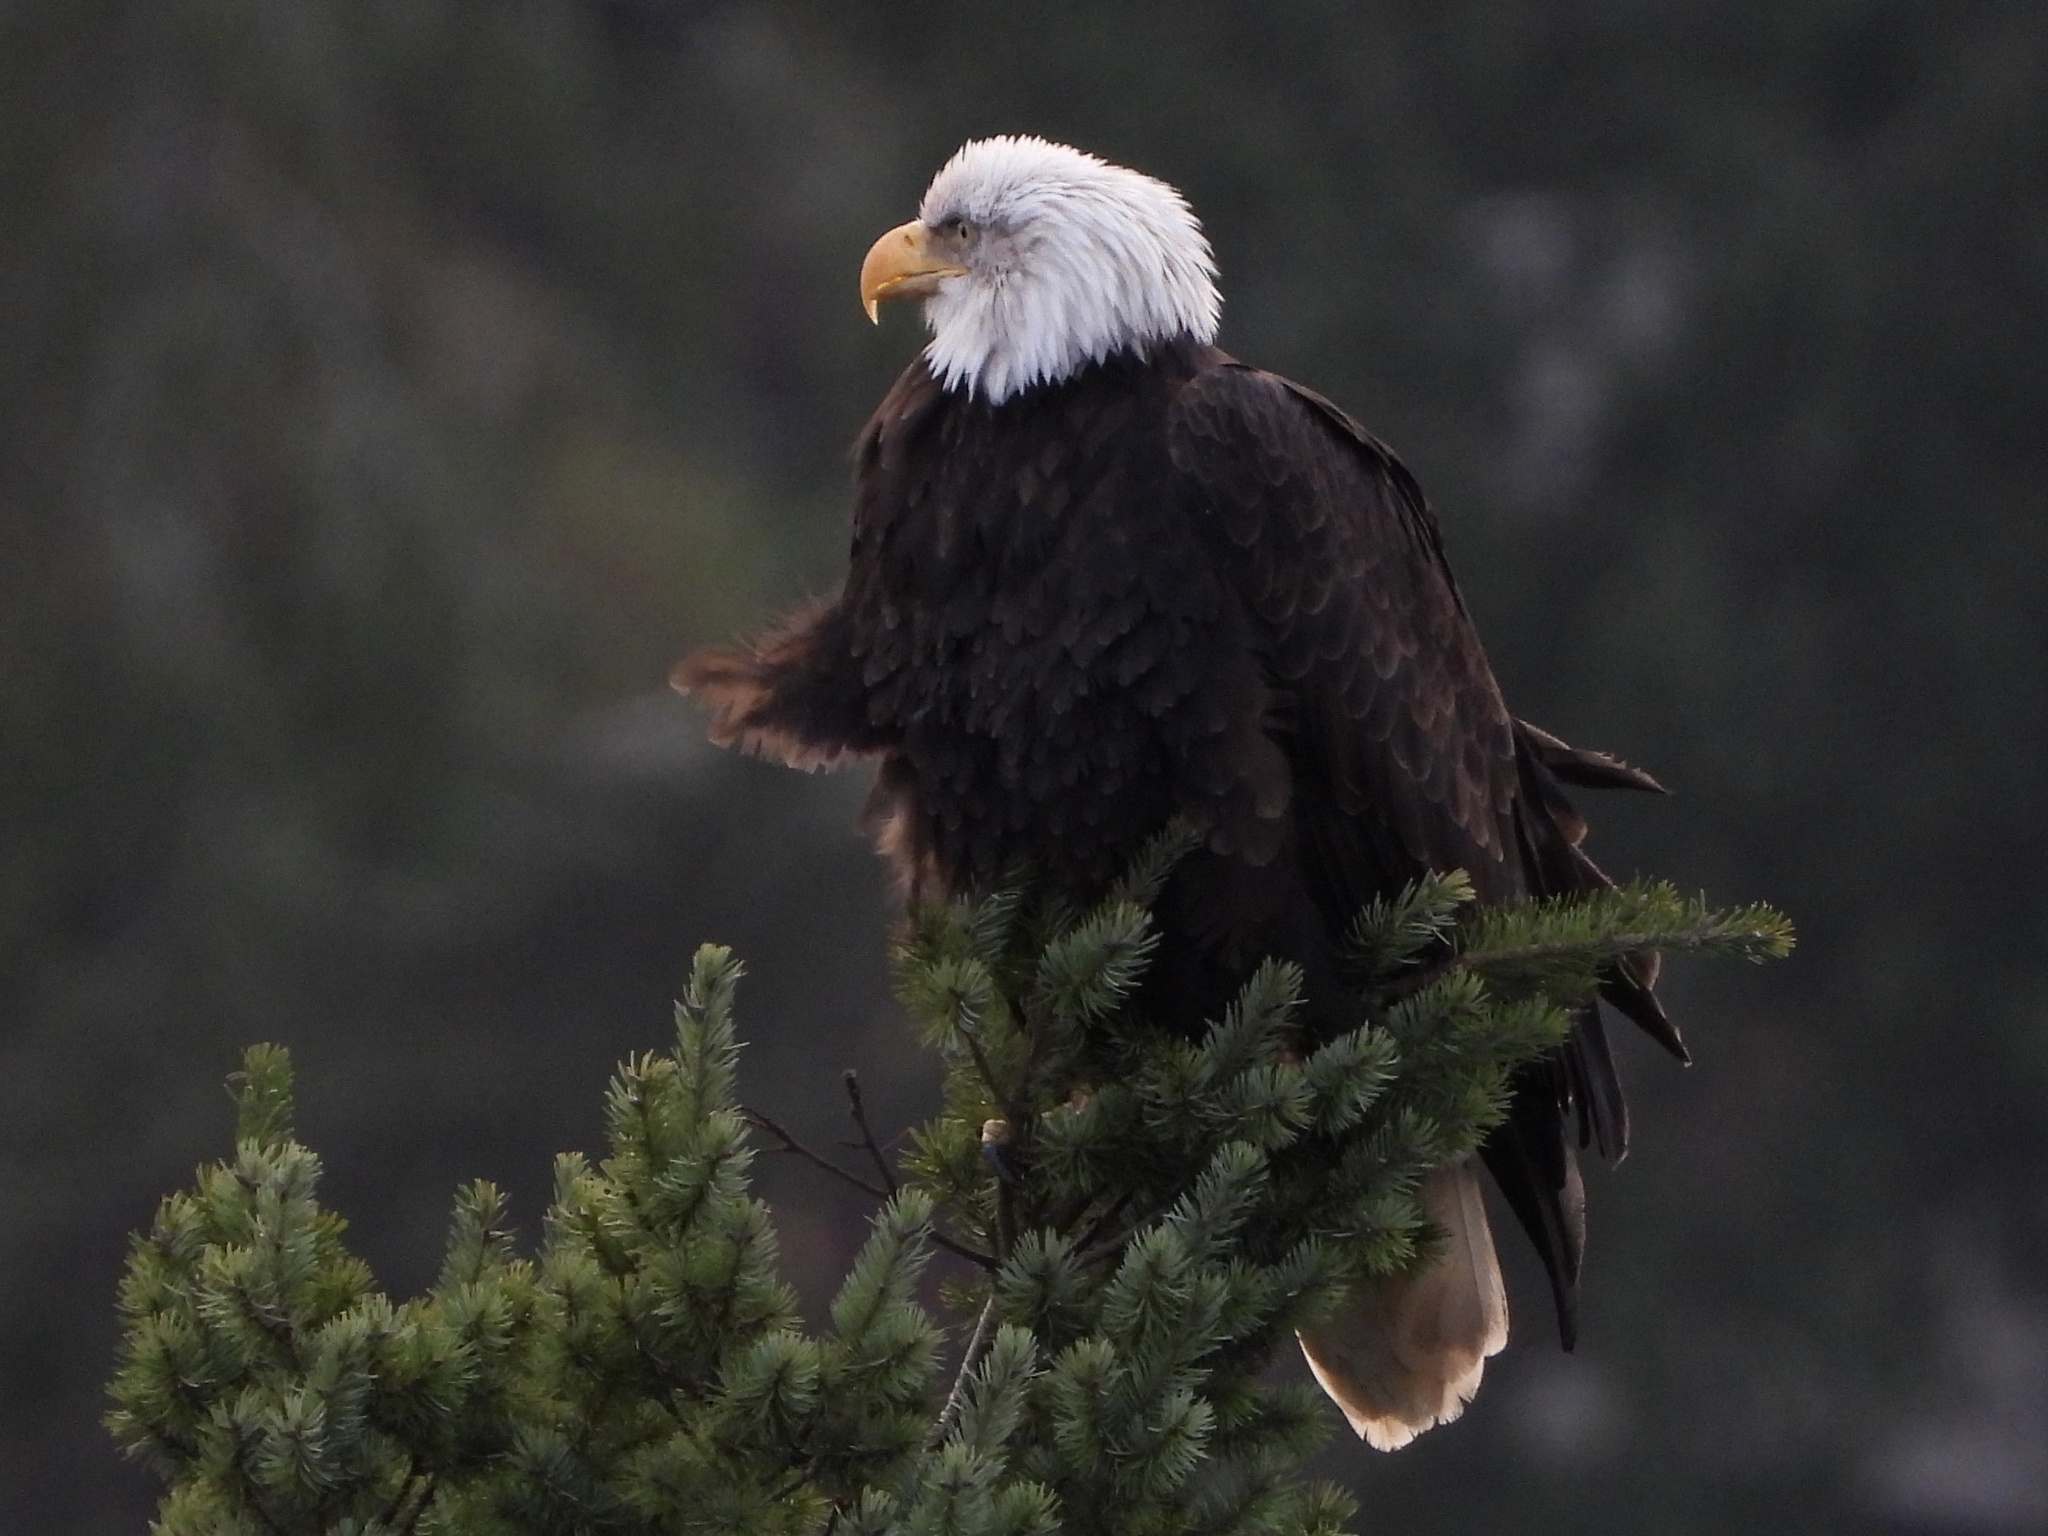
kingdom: Animalia
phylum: Chordata
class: Aves
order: Accipitriformes
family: Accipitridae
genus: Haliaeetus
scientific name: Haliaeetus leucocephalus
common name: Bald eagle
